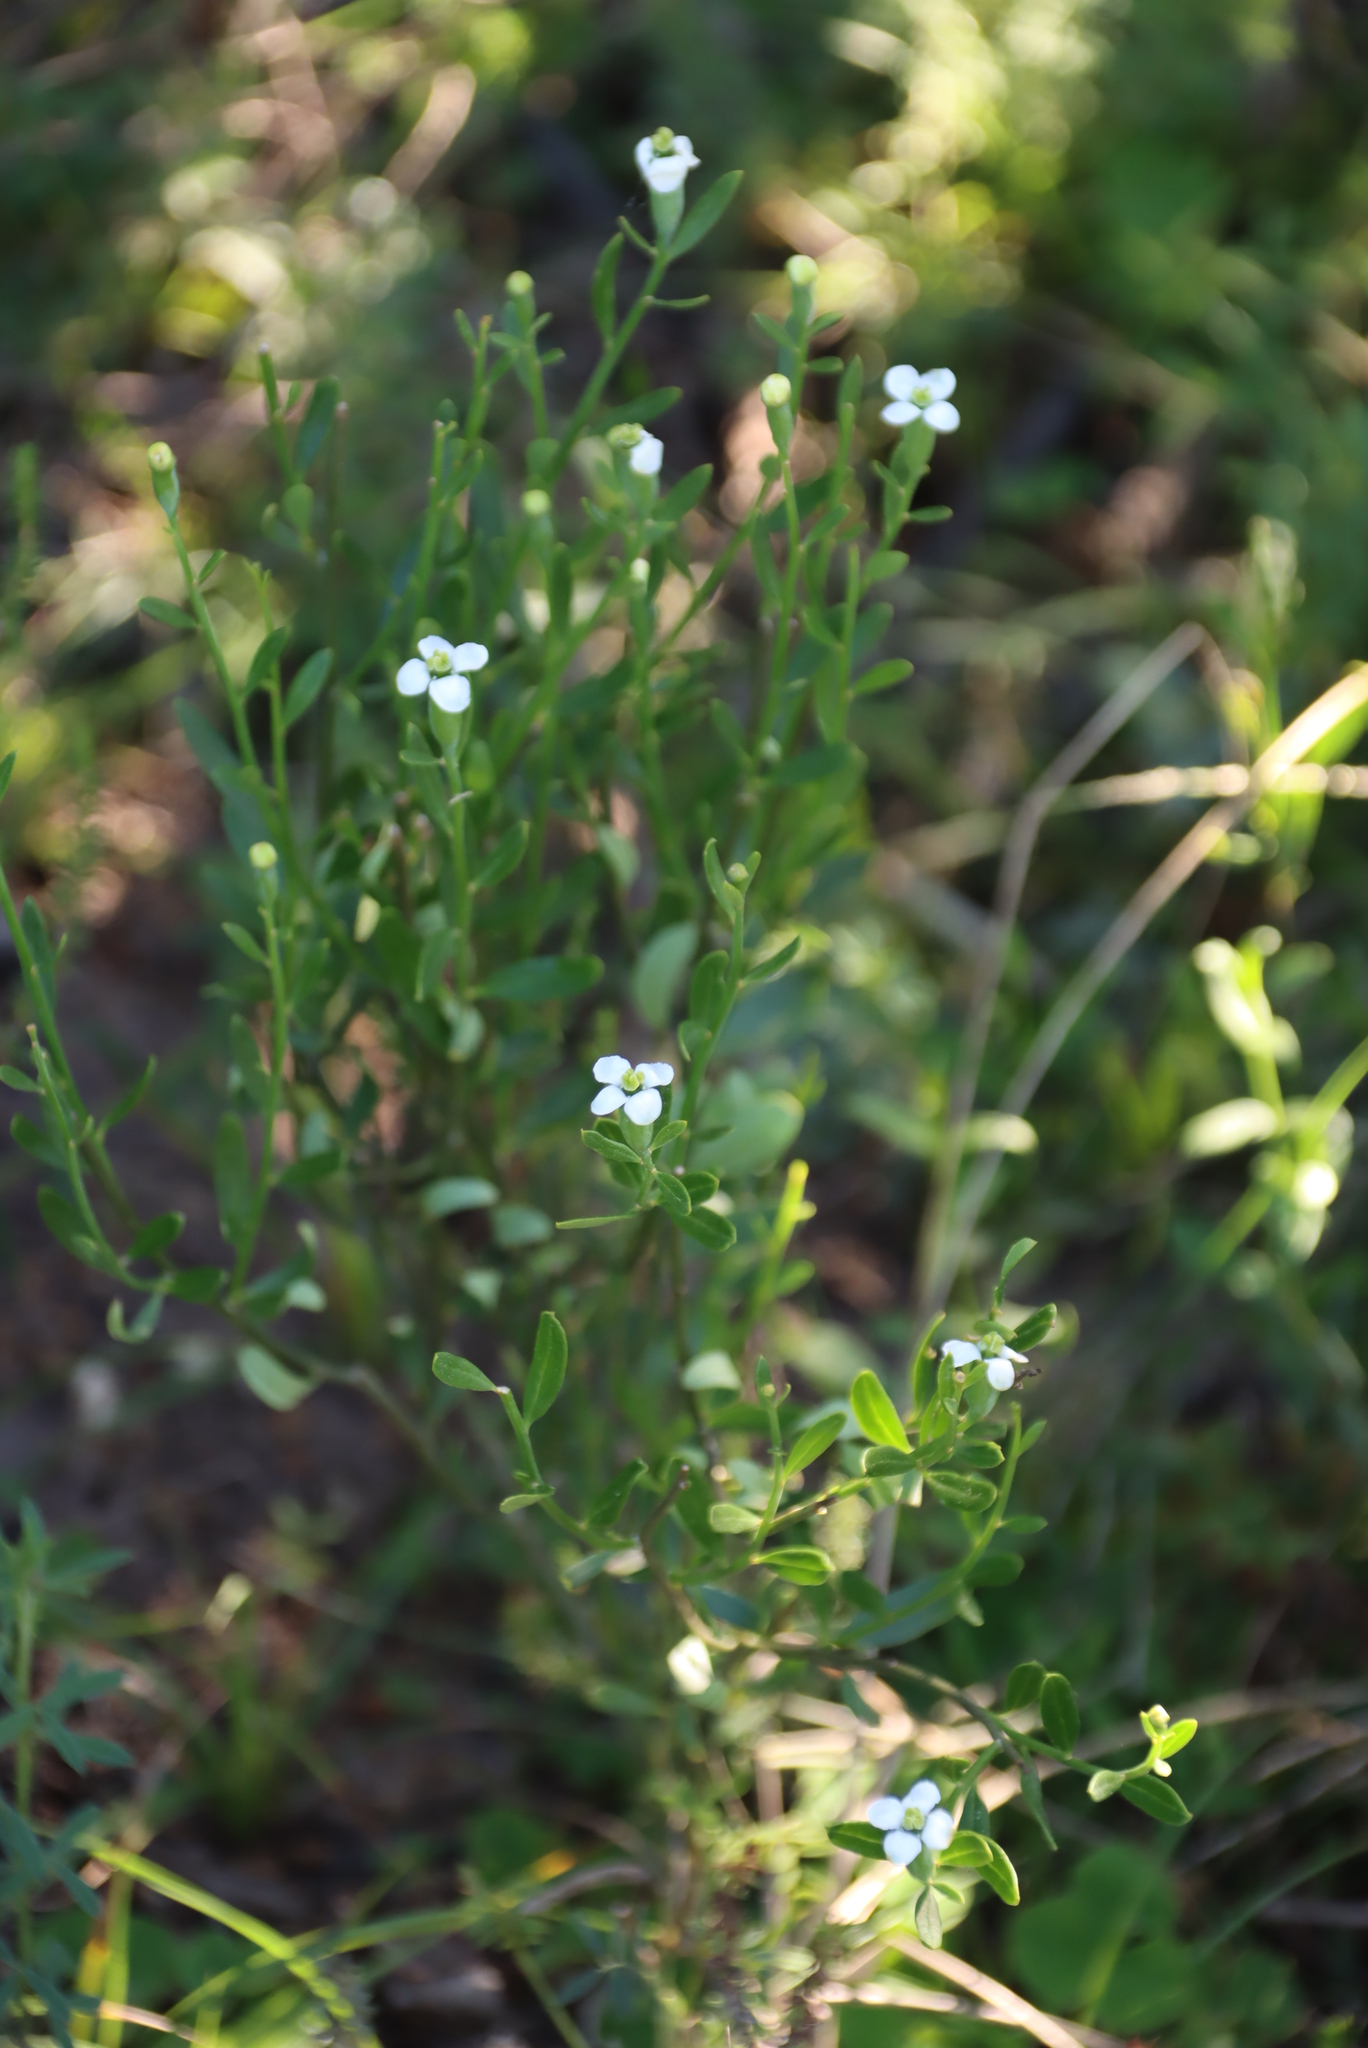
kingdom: Plantae
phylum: Tracheophyta
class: Magnoliopsida
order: Solanales
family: Montiniaceae
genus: Montinia
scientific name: Montinia caryophyllacea
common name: Wild clove-bush
